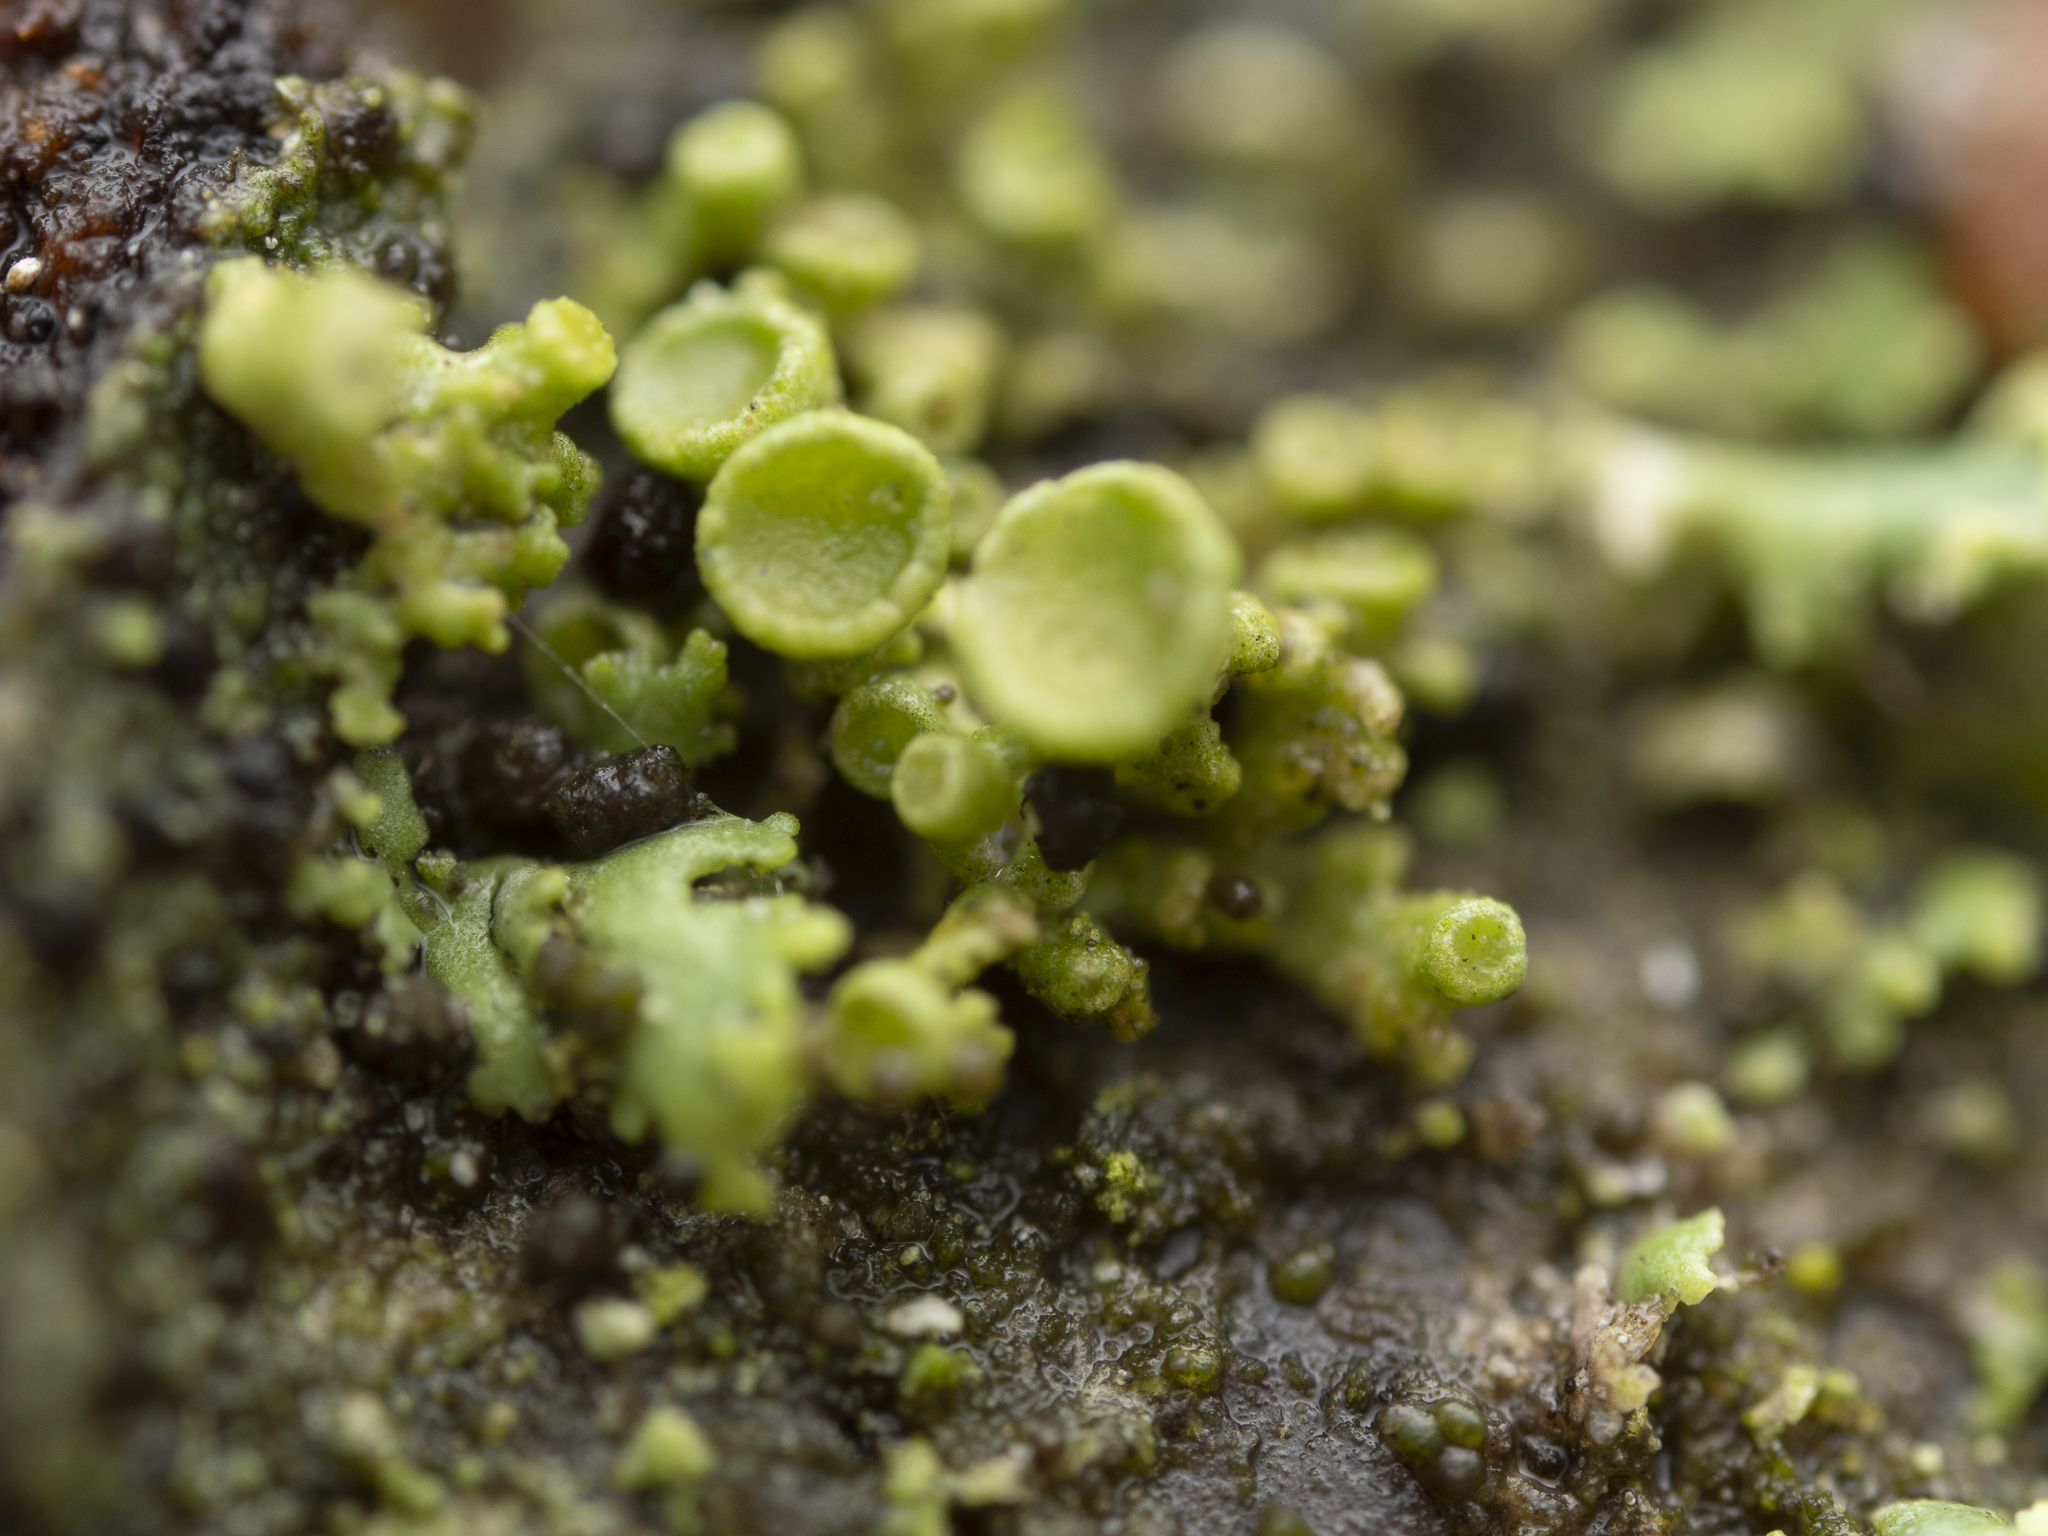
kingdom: Fungi
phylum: Ascomycota
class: Lecanoromycetes
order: Teloschistales
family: Teloschistaceae
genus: Polycauliona
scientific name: Polycauliona polycarpa
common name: Pin-cushion sunburst lichen
